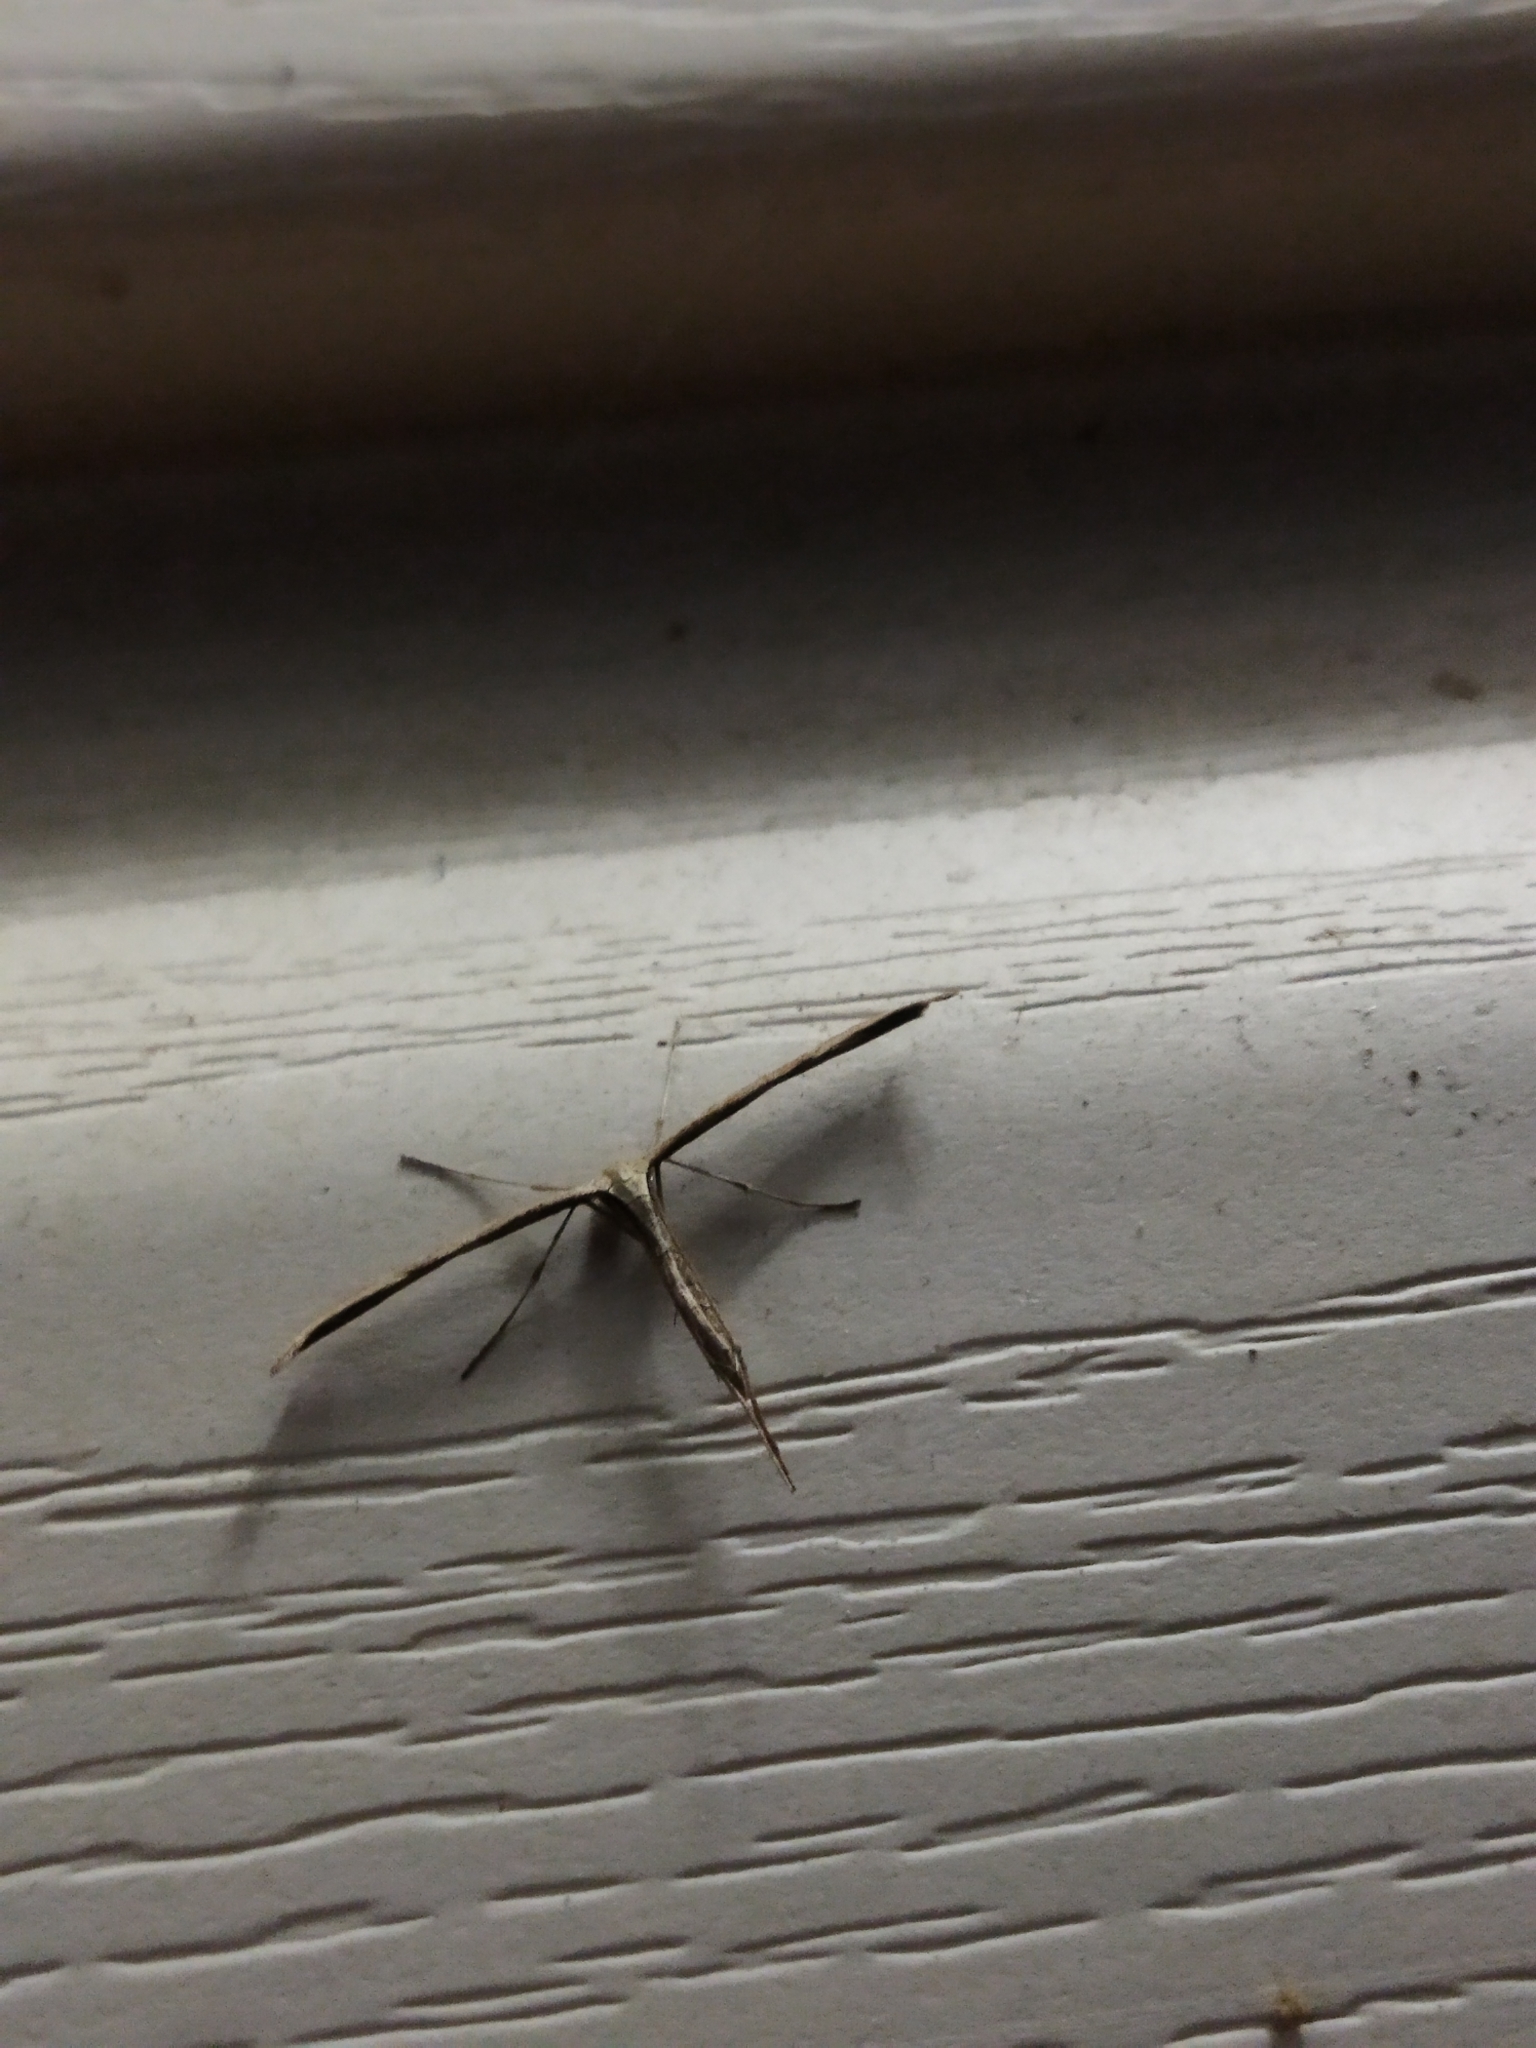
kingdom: Animalia
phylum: Arthropoda
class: Insecta
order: Lepidoptera
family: Pterophoridae
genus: Emmelina
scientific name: Emmelina monodactyla
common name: Common plume
